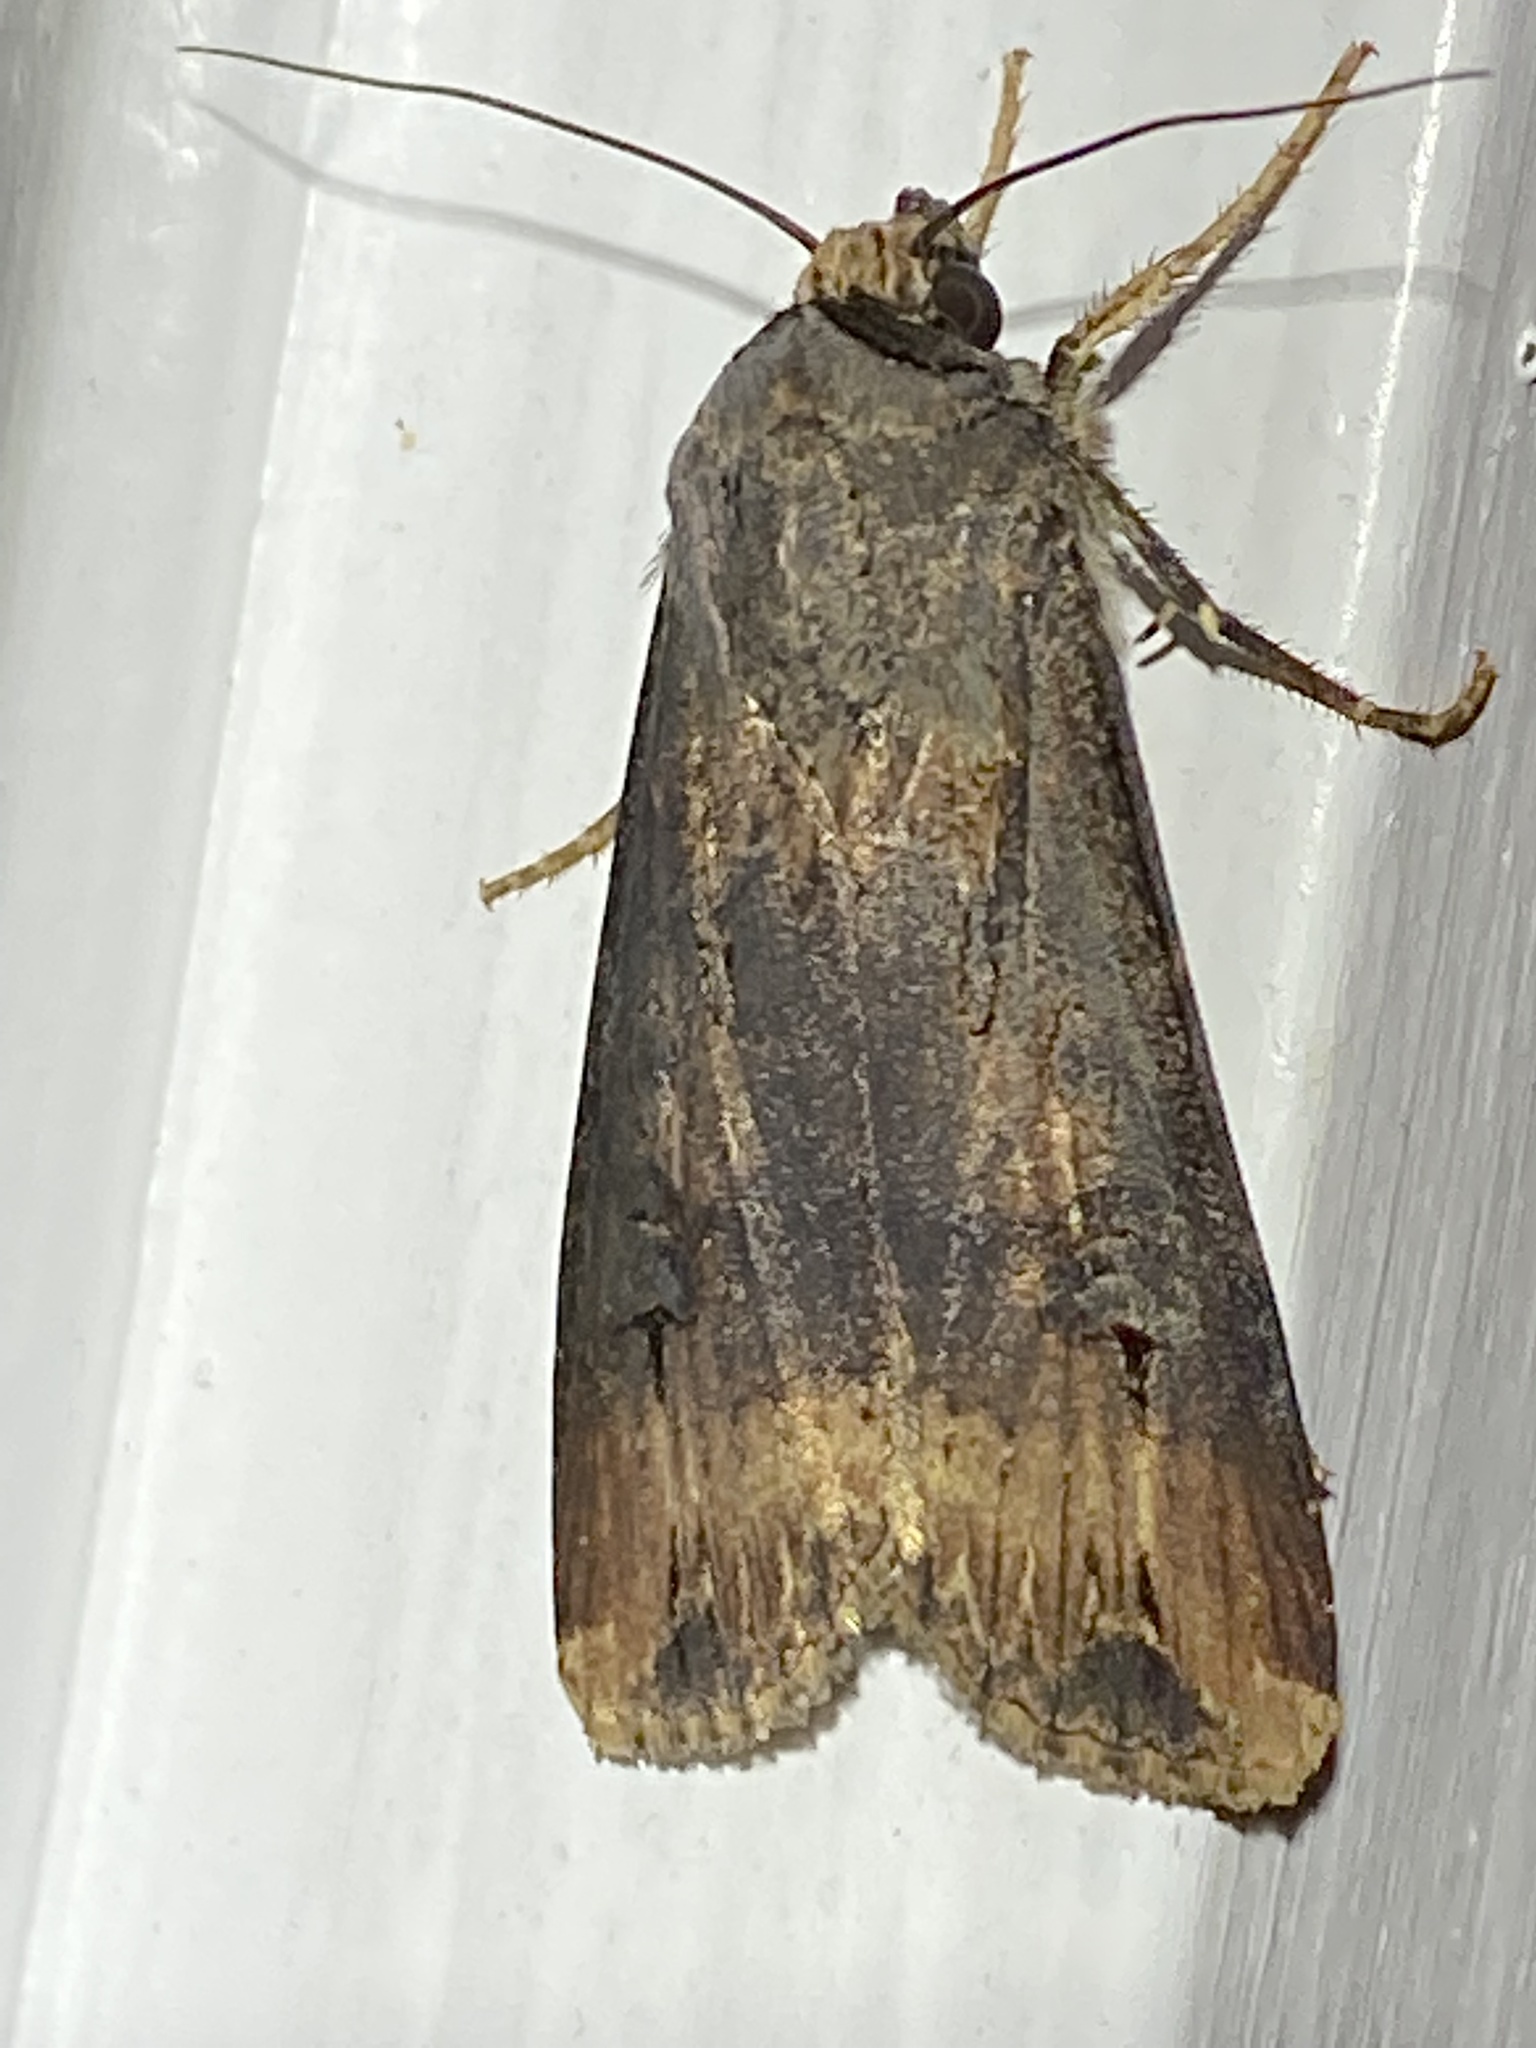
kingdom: Animalia
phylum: Arthropoda
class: Insecta
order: Lepidoptera
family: Noctuidae
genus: Agrotis
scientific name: Agrotis ipsilon
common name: Dark sword-grass
